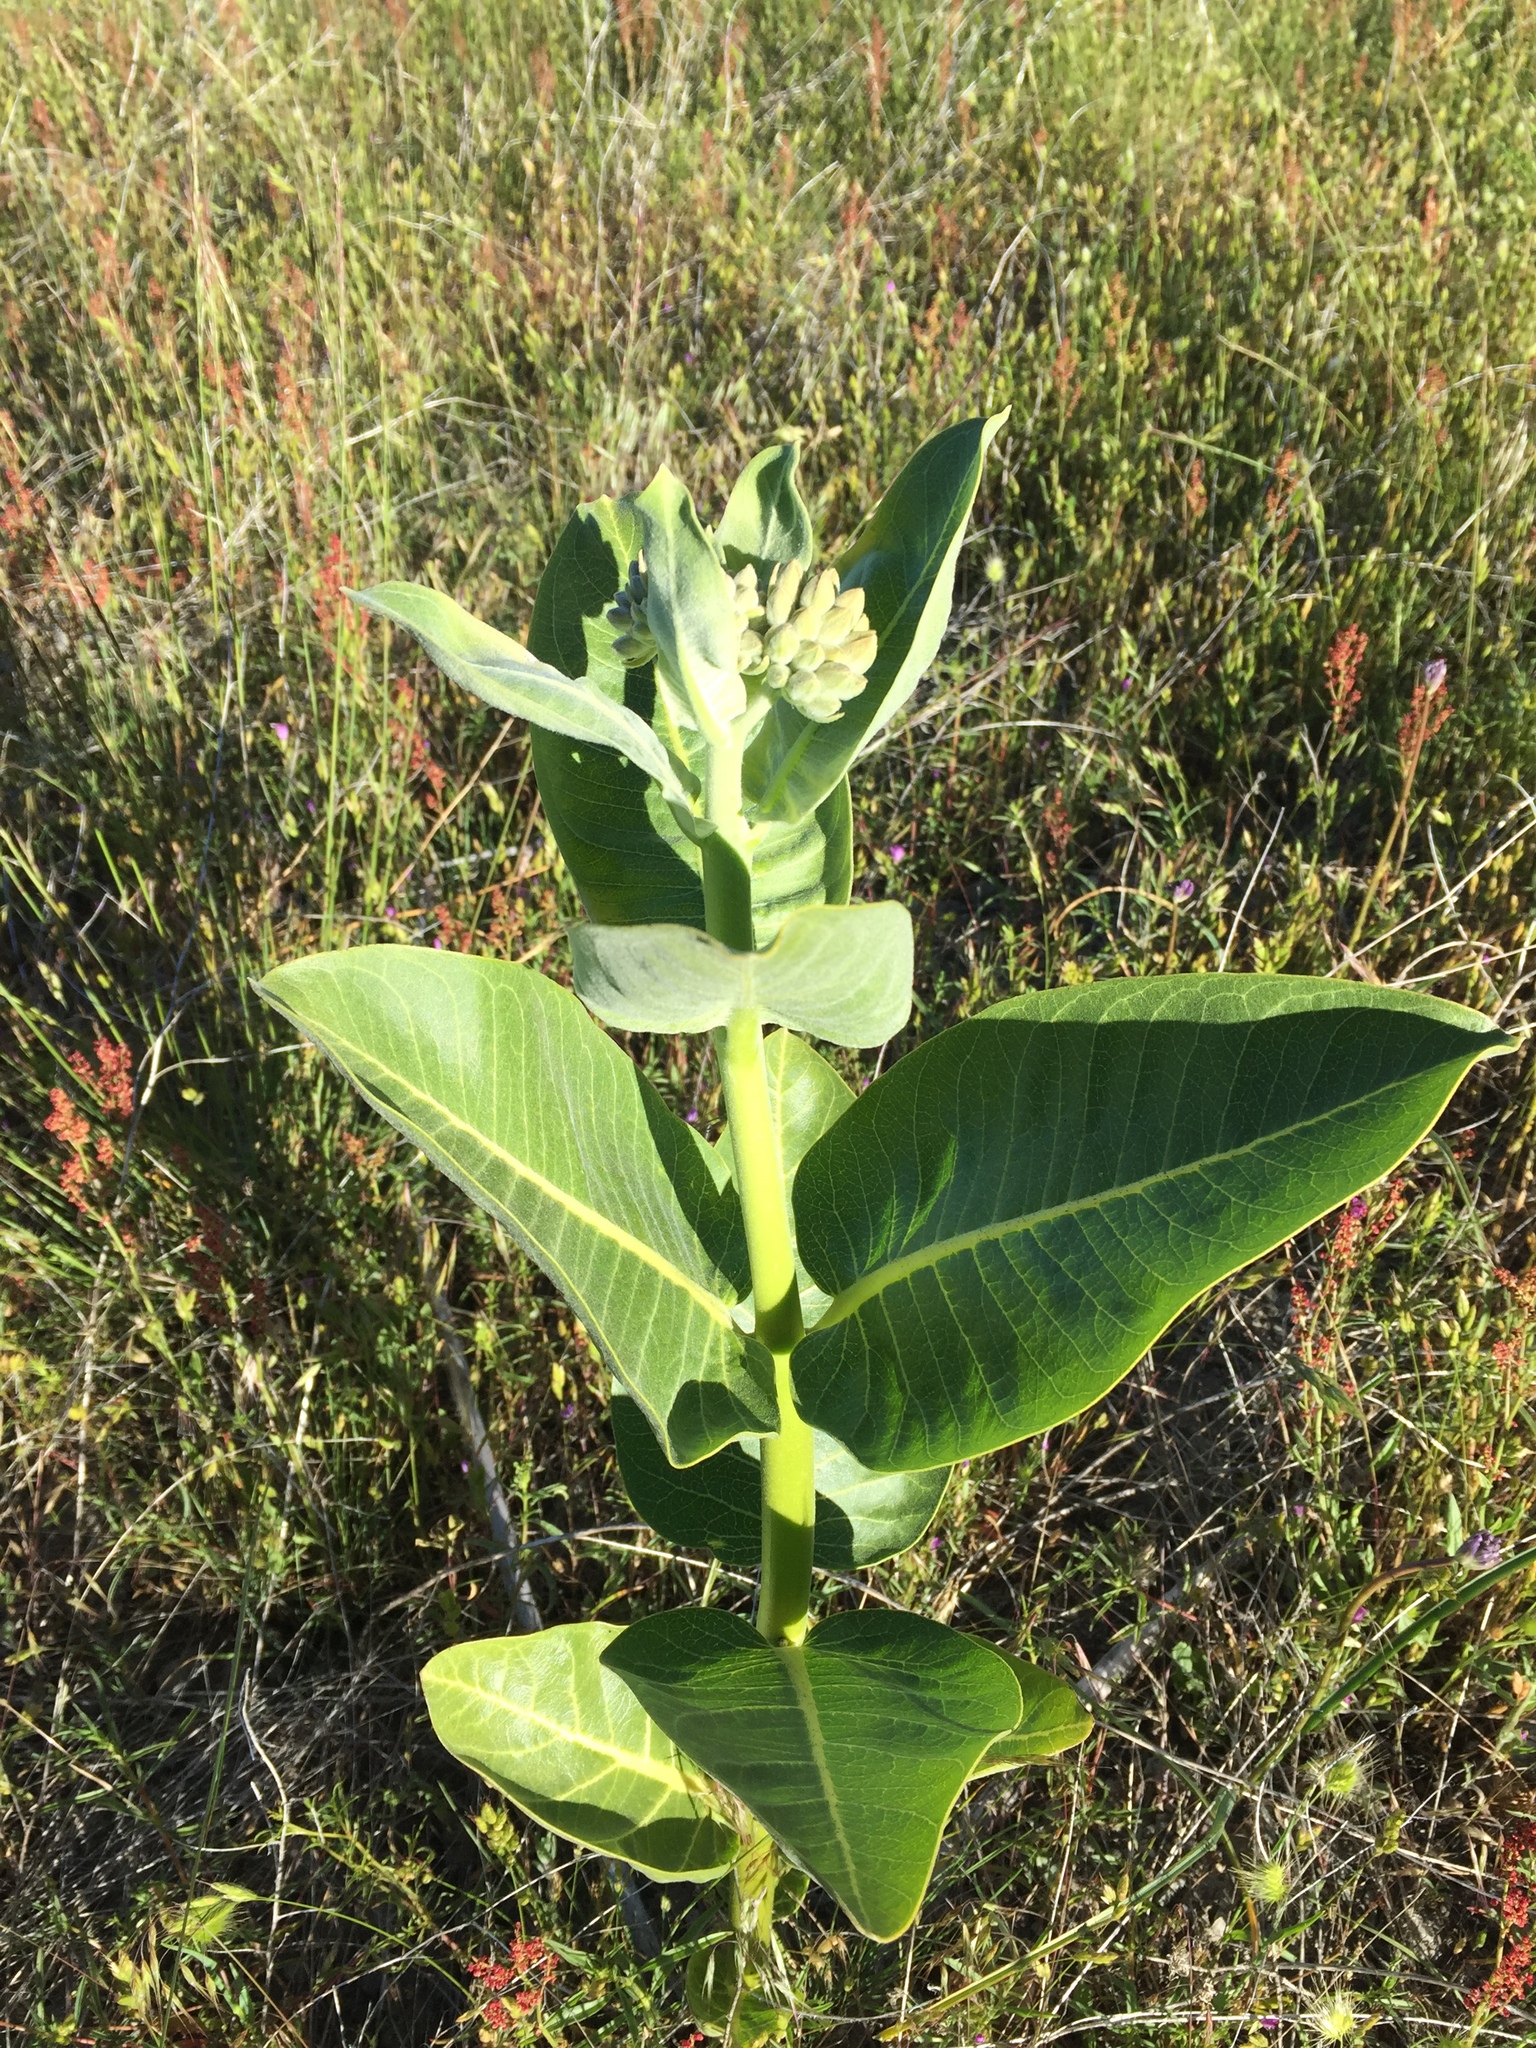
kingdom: Plantae
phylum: Tracheophyta
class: Magnoliopsida
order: Gentianales
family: Apocynaceae
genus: Asclepias
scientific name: Asclepias speciosa
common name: Showy milkweed
